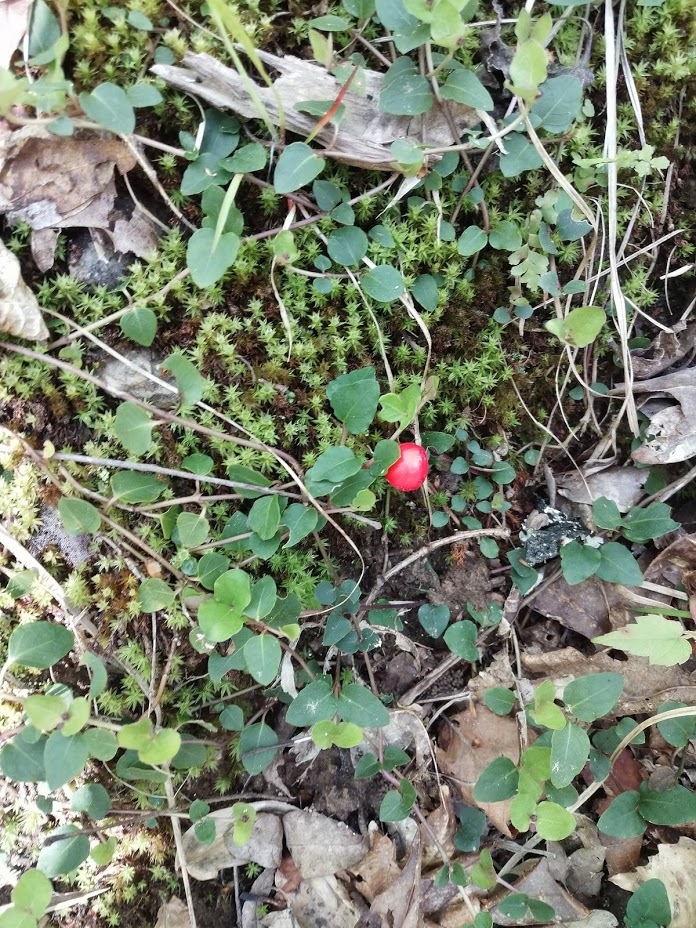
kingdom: Plantae
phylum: Tracheophyta
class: Magnoliopsida
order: Gentianales
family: Rubiaceae
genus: Mitchella
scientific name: Mitchella repens
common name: Partridge-berry
